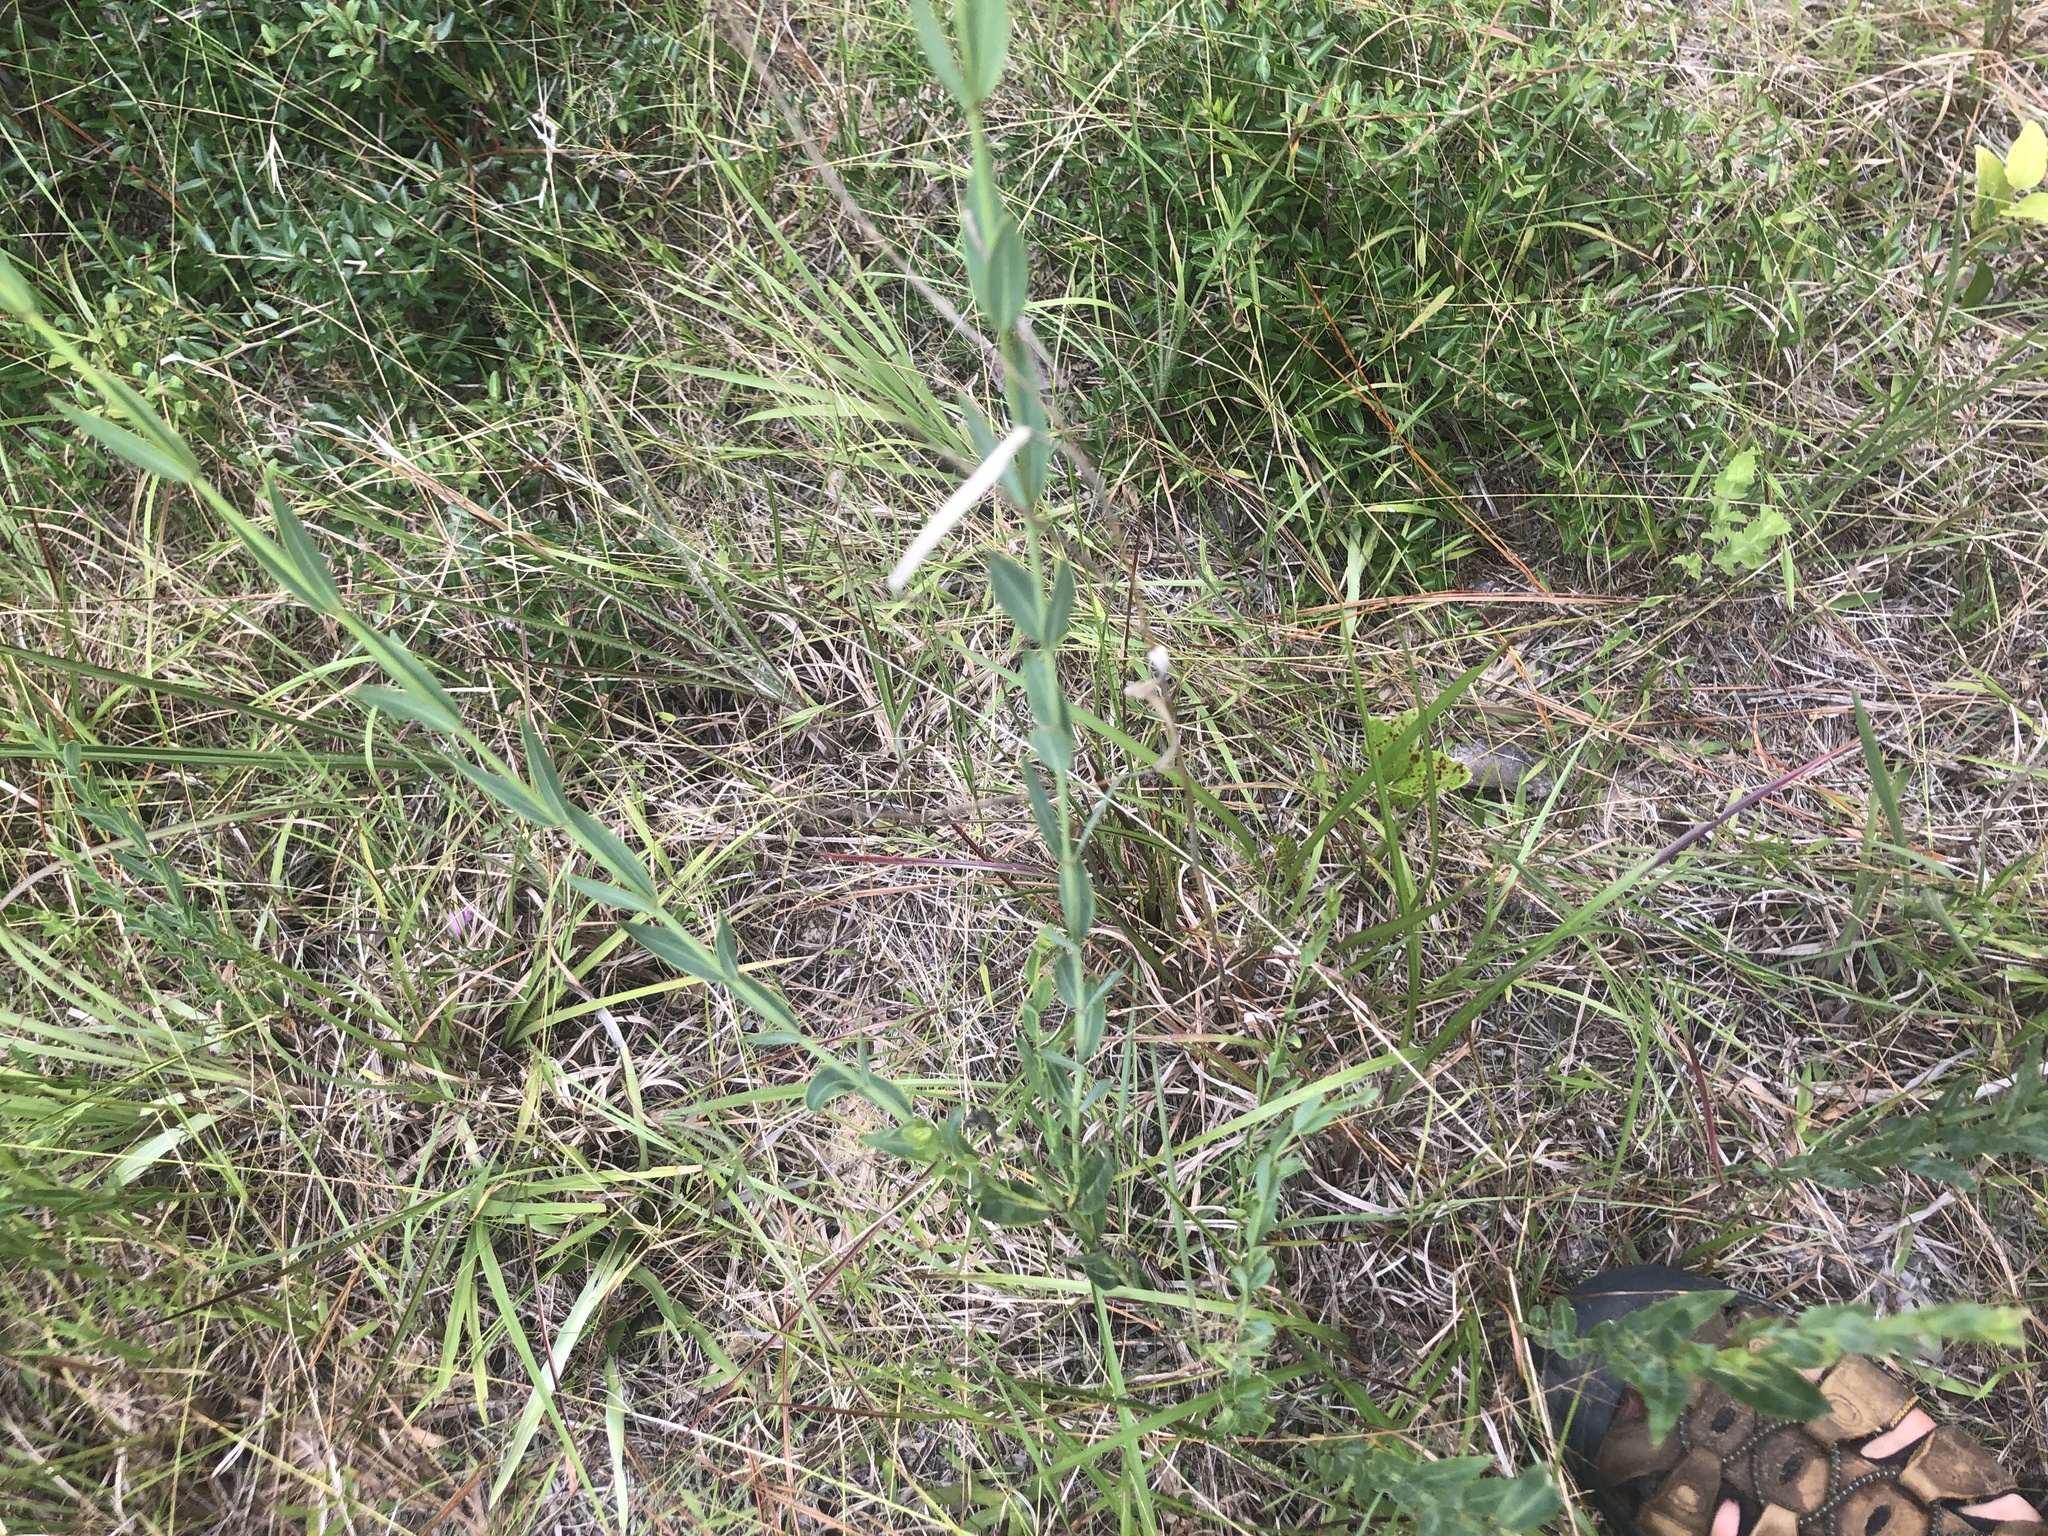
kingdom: Plantae
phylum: Tracheophyta
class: Magnoliopsida
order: Myrtales
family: Melastomataceae
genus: Rhexia
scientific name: Rhexia alifanus
